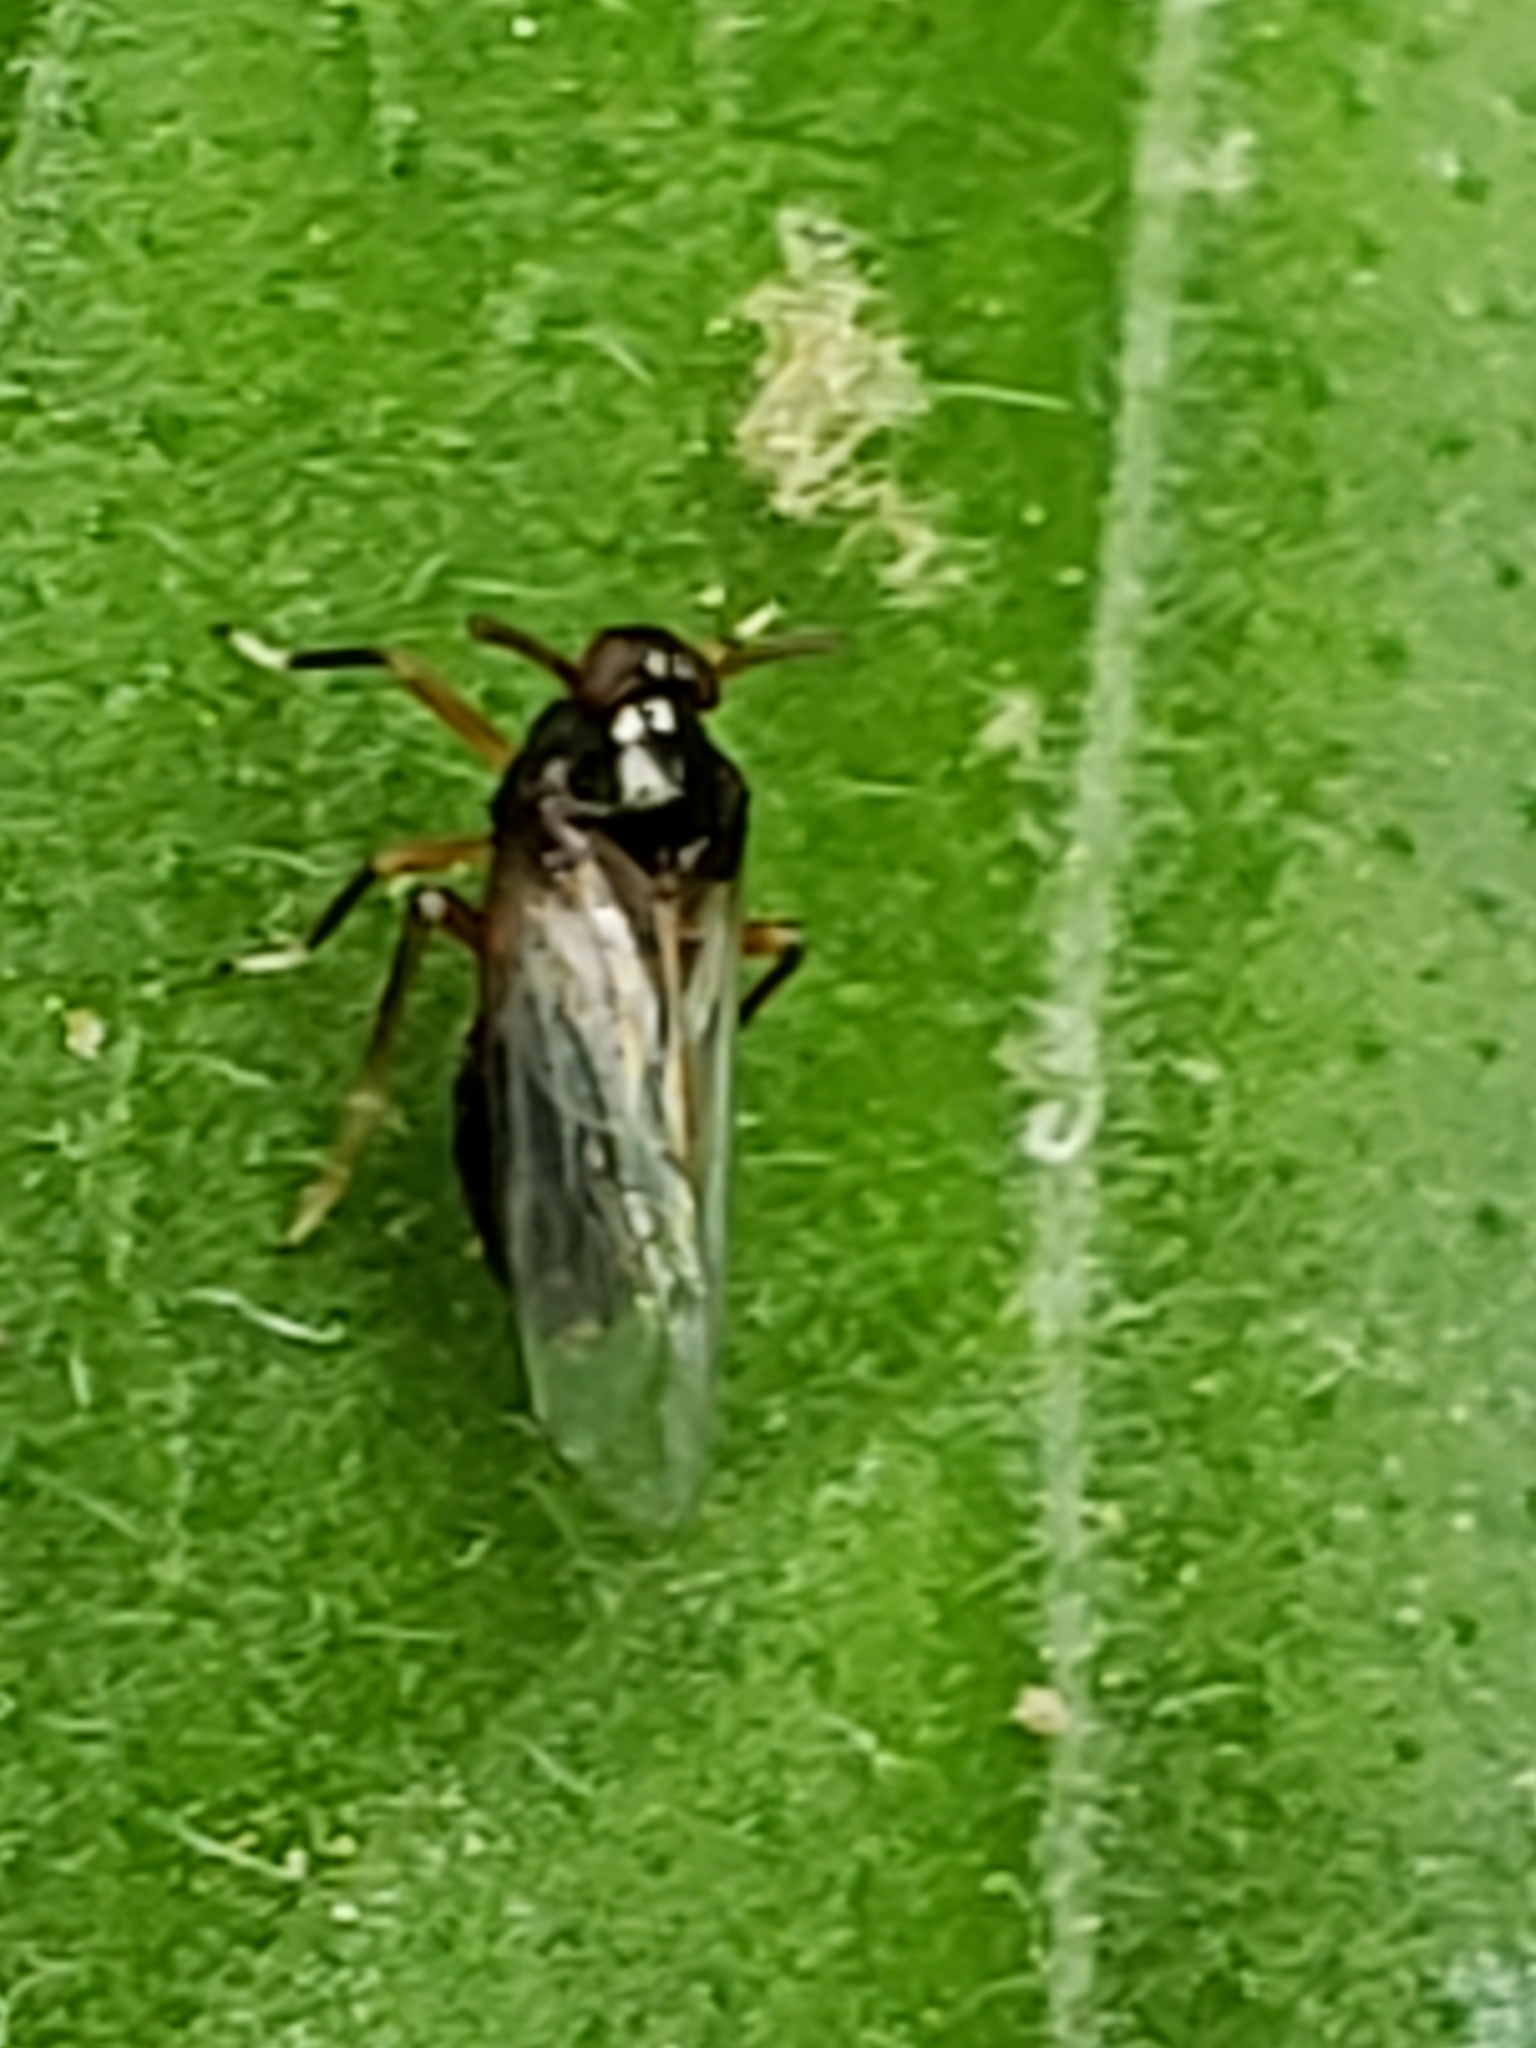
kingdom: Animalia
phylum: Arthropoda
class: Insecta
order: Hemiptera
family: Delphacidae
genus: Pissonotus
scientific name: Pissonotus marginatus
